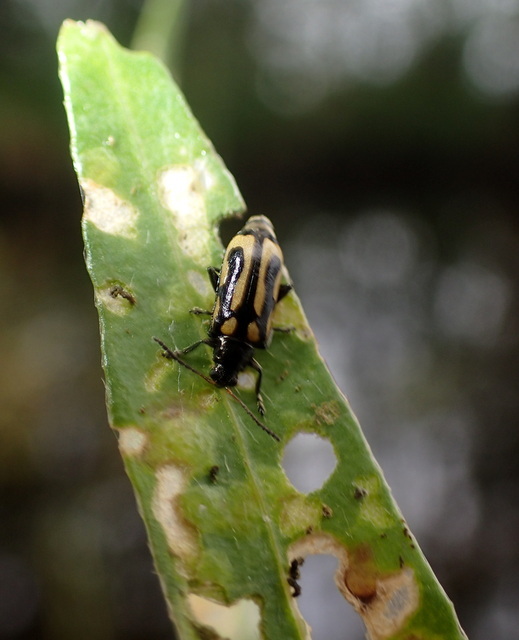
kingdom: Animalia
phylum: Arthropoda
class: Insecta
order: Coleoptera
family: Chrysomelidae
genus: Agasicles
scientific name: Agasicles hygrophila
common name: Alligatorweed flea beetle
